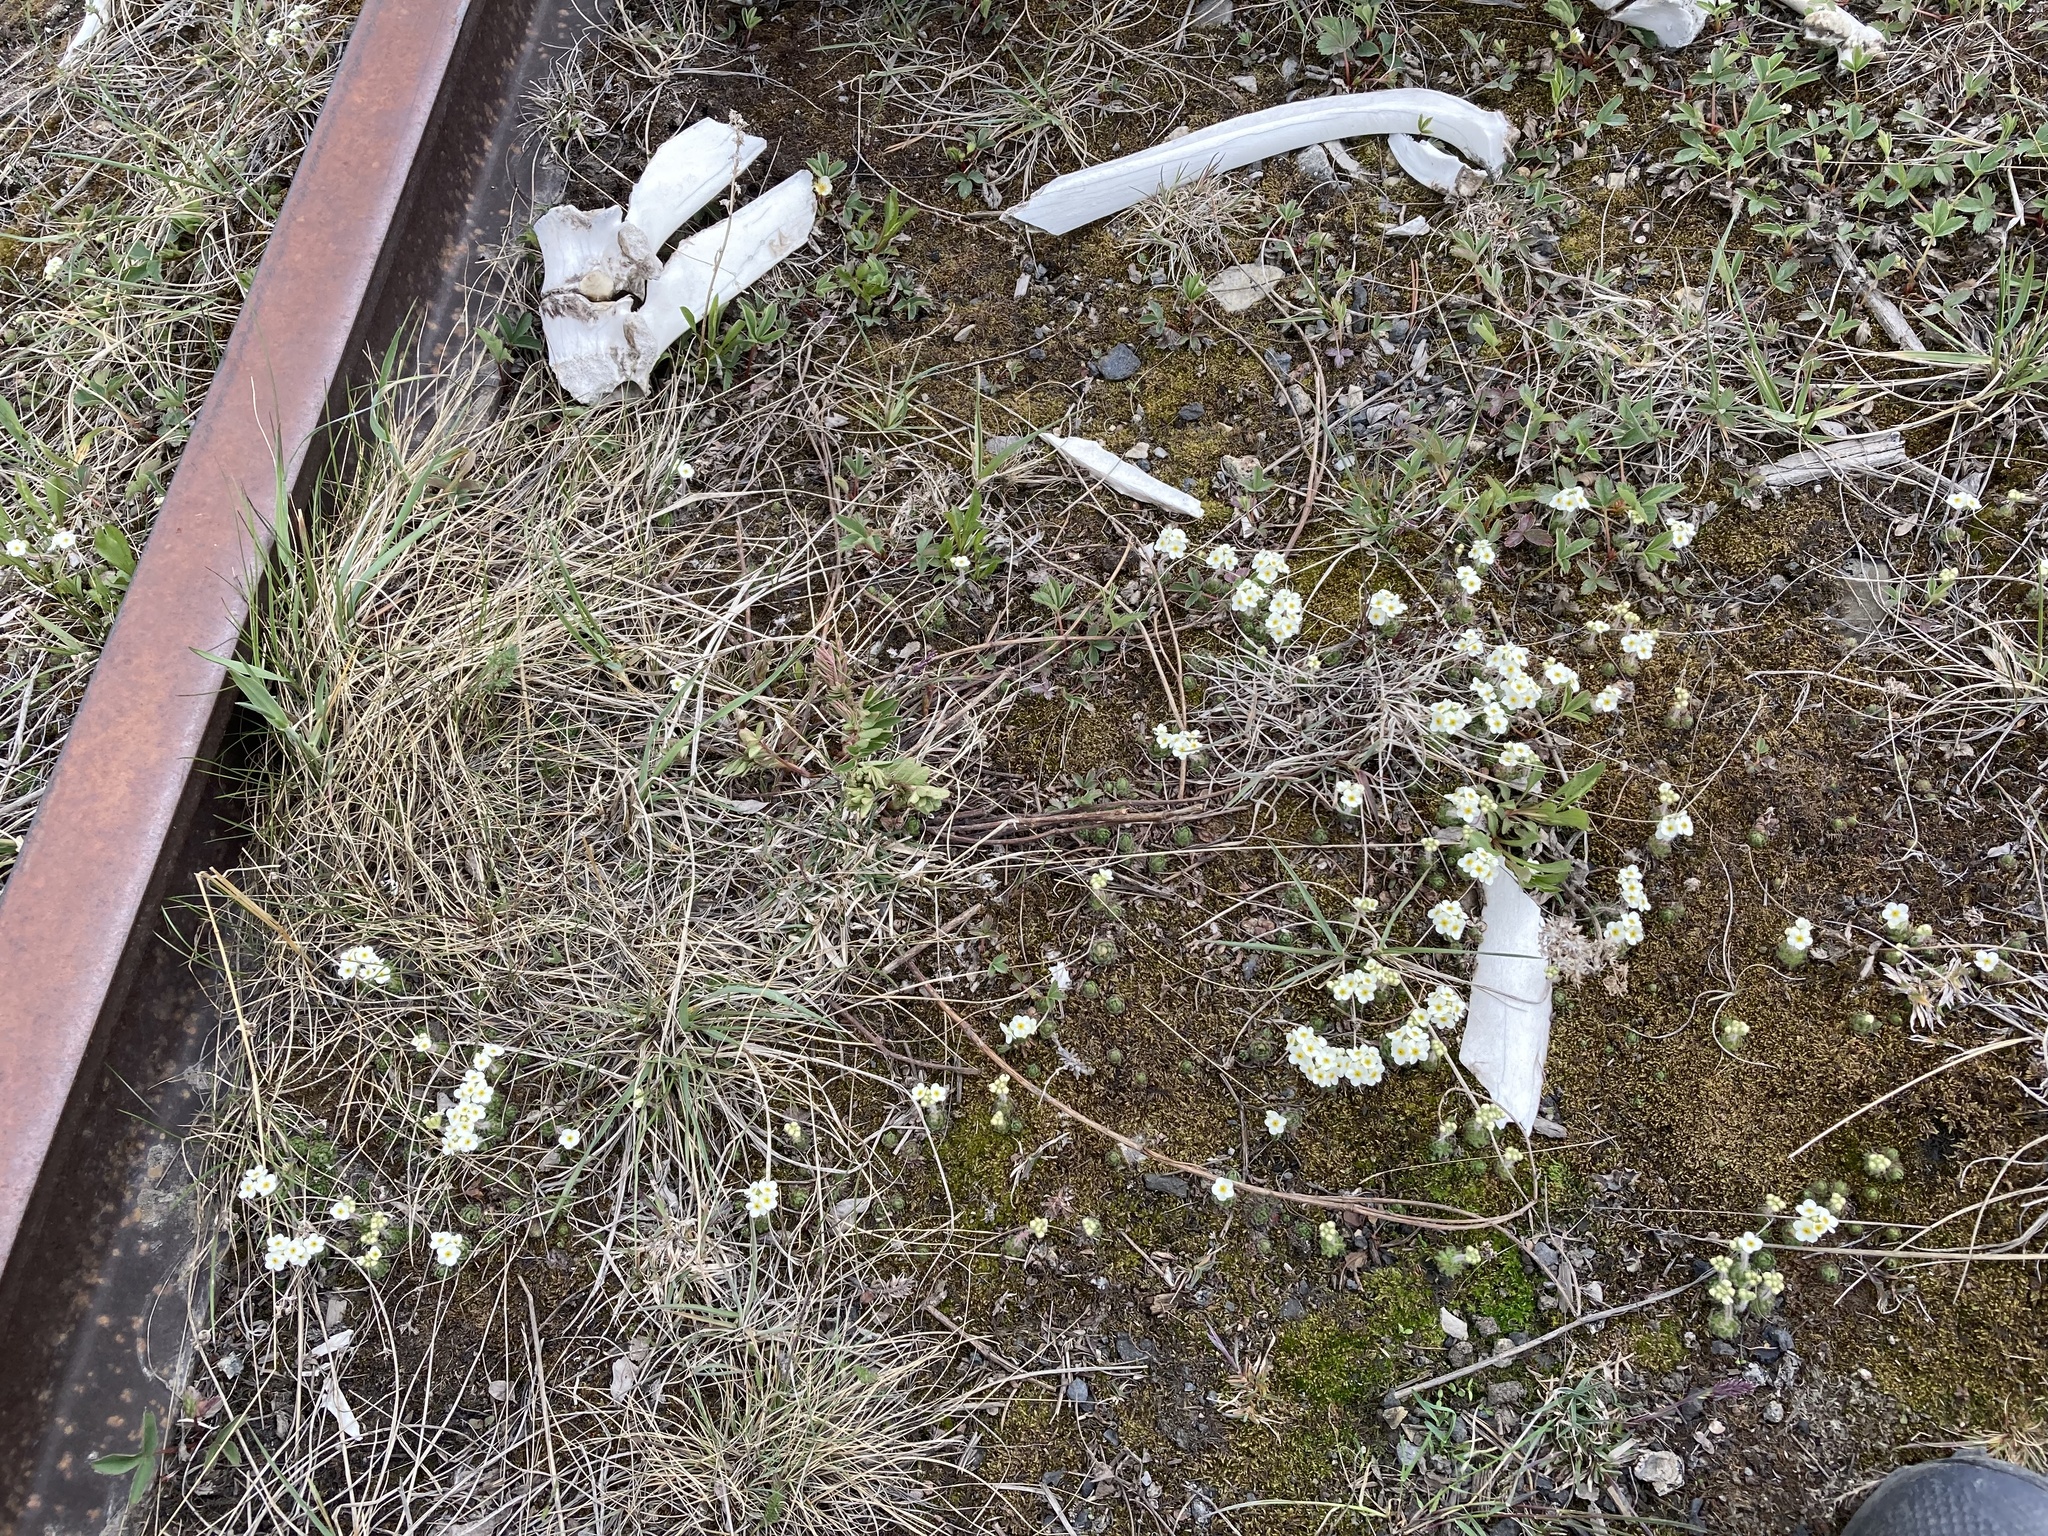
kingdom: Plantae
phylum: Tracheophyta
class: Magnoliopsida
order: Ericales
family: Primulaceae
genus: Androsace
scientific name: Androsace chamaejasme
